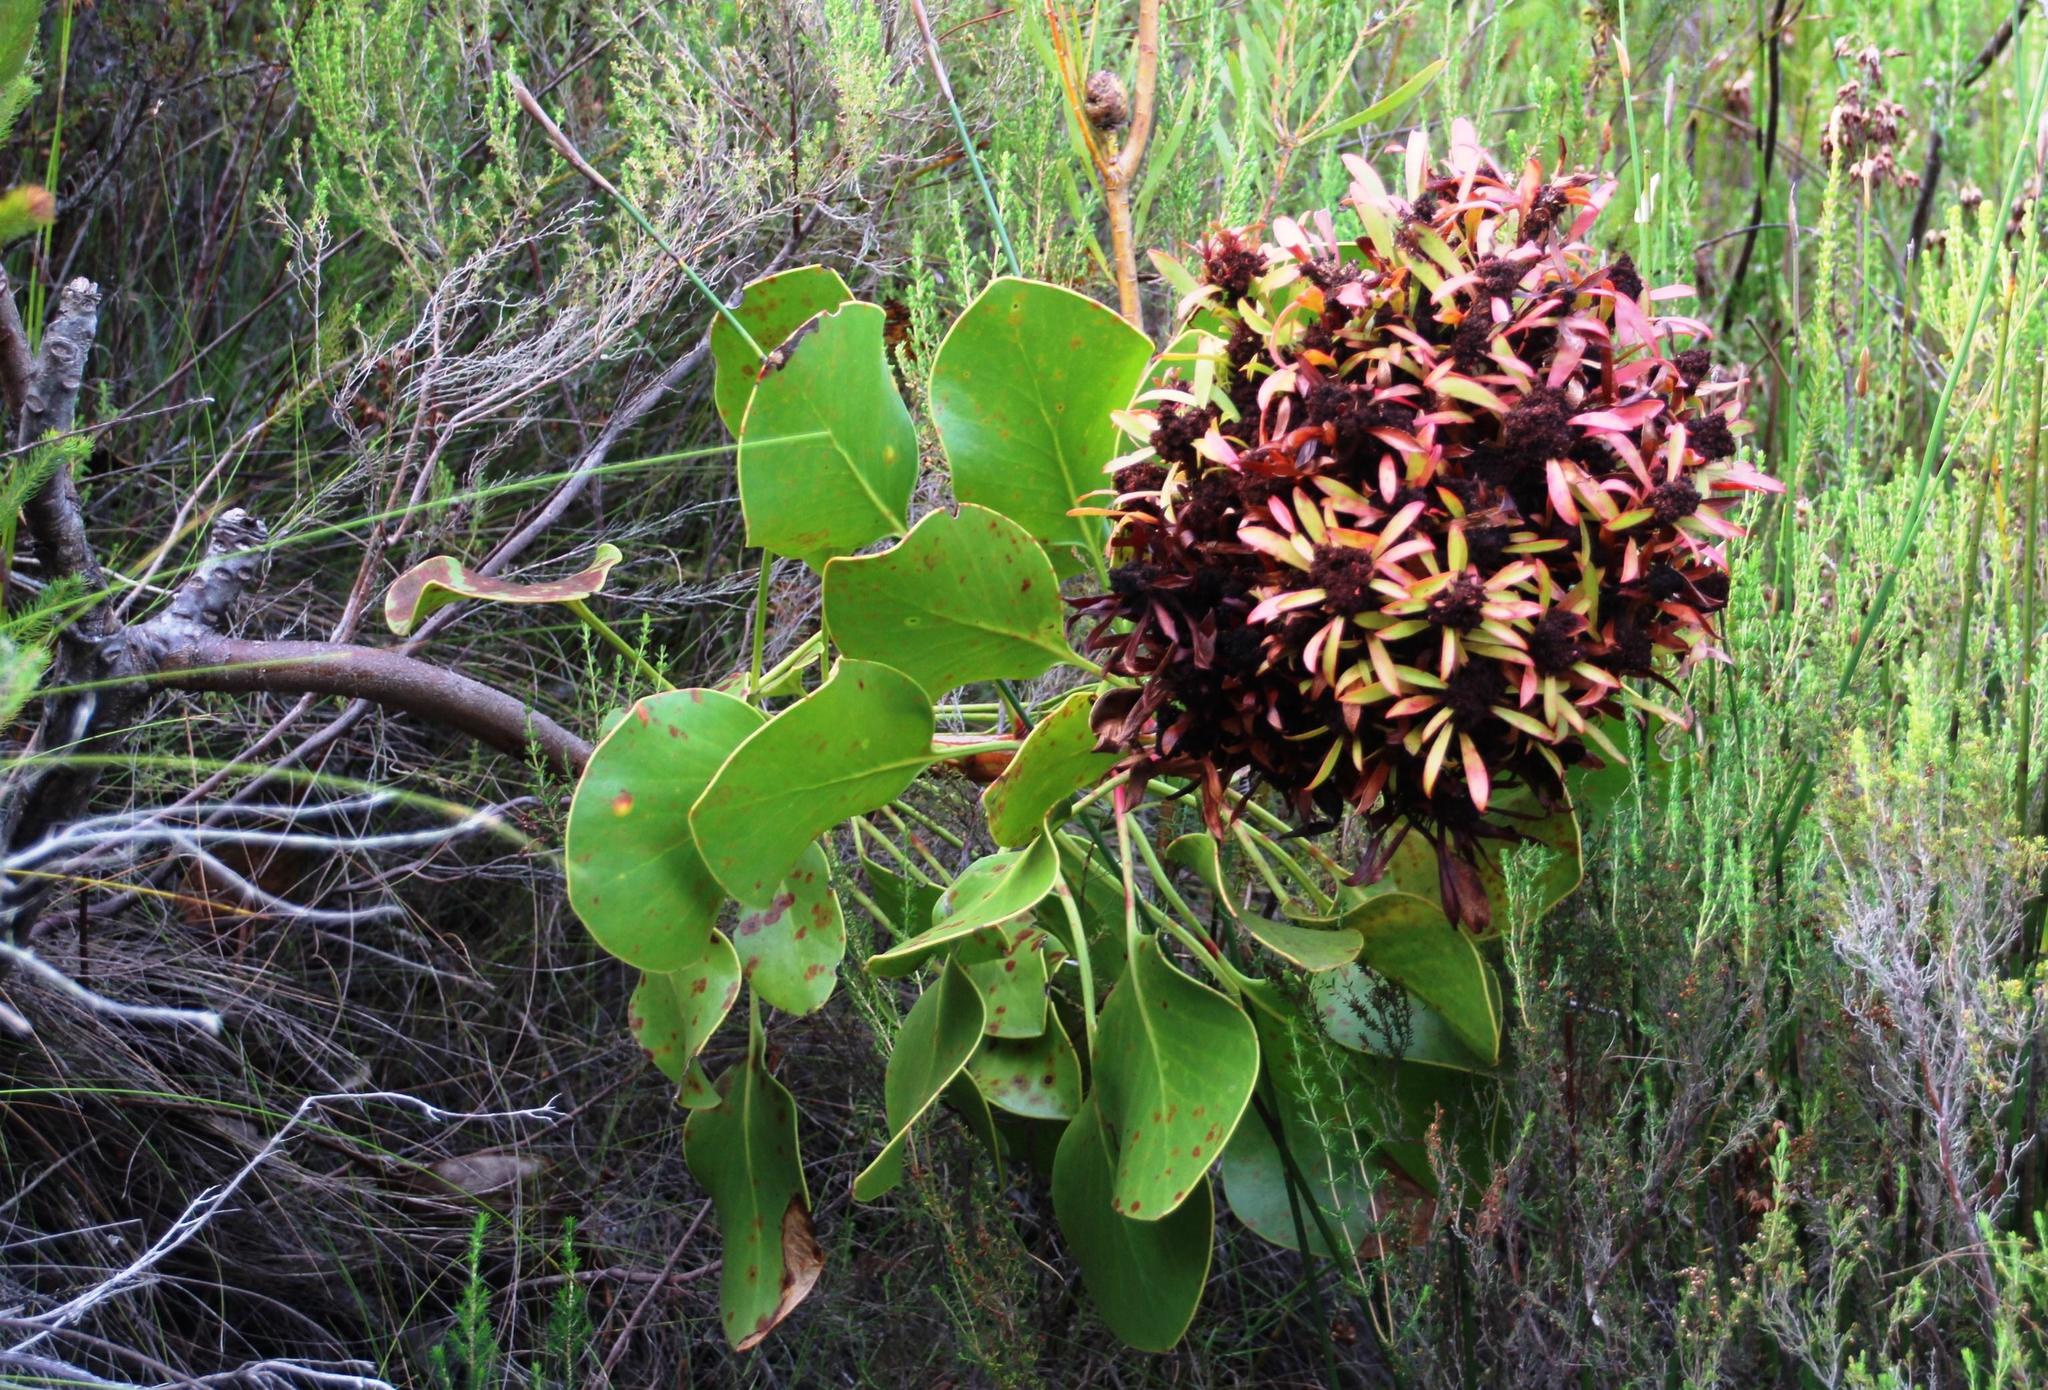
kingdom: Bacteria
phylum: Firmicutes
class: Bacilli
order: Acholeplasmatales
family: Acholeplasmataceae
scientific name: Acholeplasmataceae
